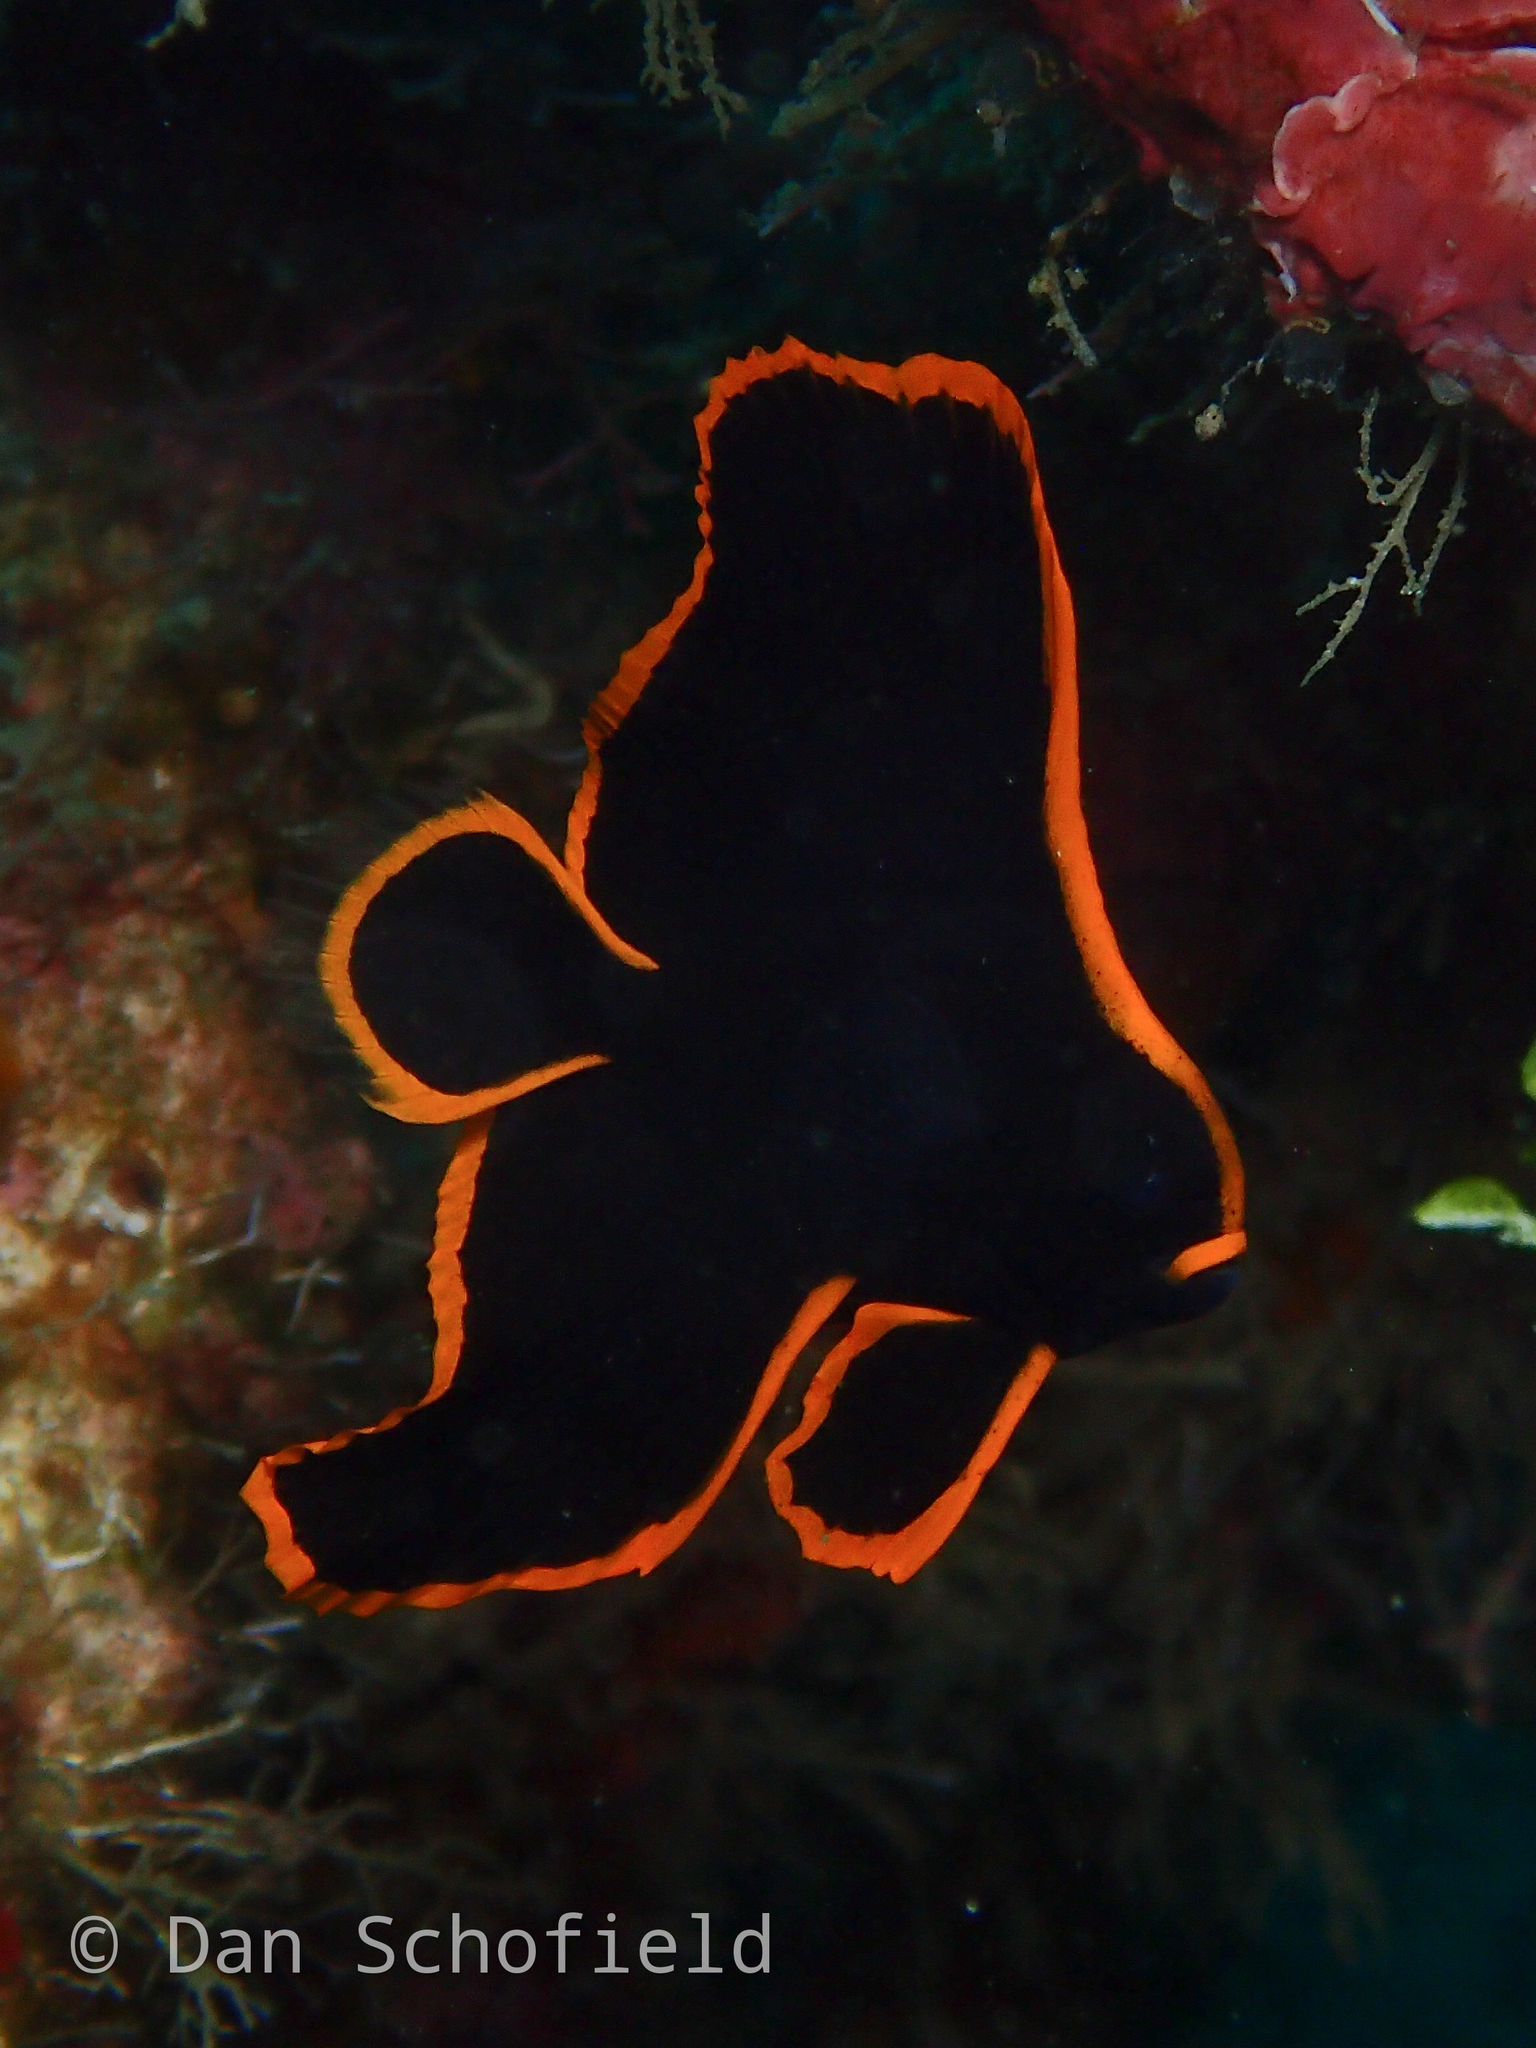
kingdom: Animalia
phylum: Chordata
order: Perciformes
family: Ephippidae
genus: Platax
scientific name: Platax pinnatus
